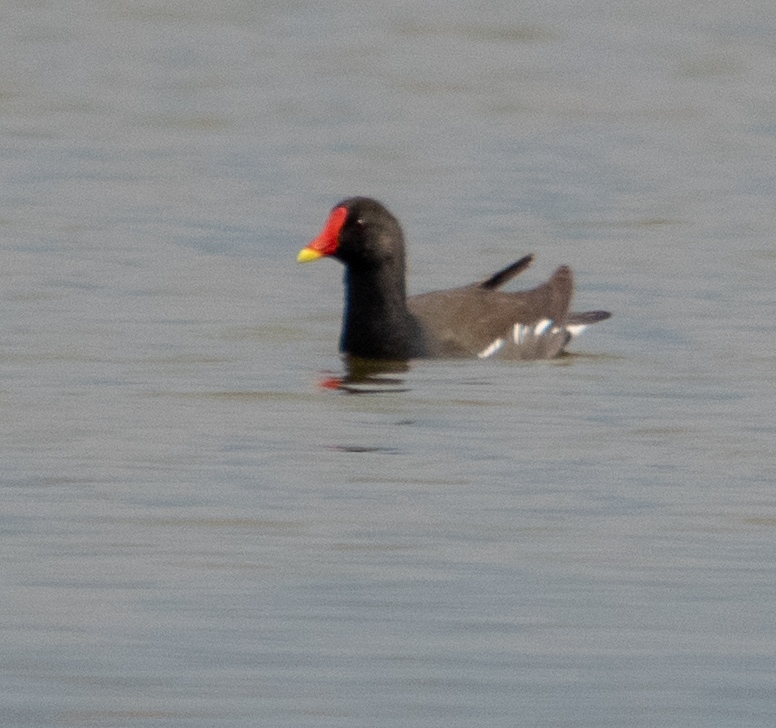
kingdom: Animalia
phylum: Chordata
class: Aves
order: Gruiformes
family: Rallidae
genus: Gallinula
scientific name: Gallinula chloropus
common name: Common moorhen
